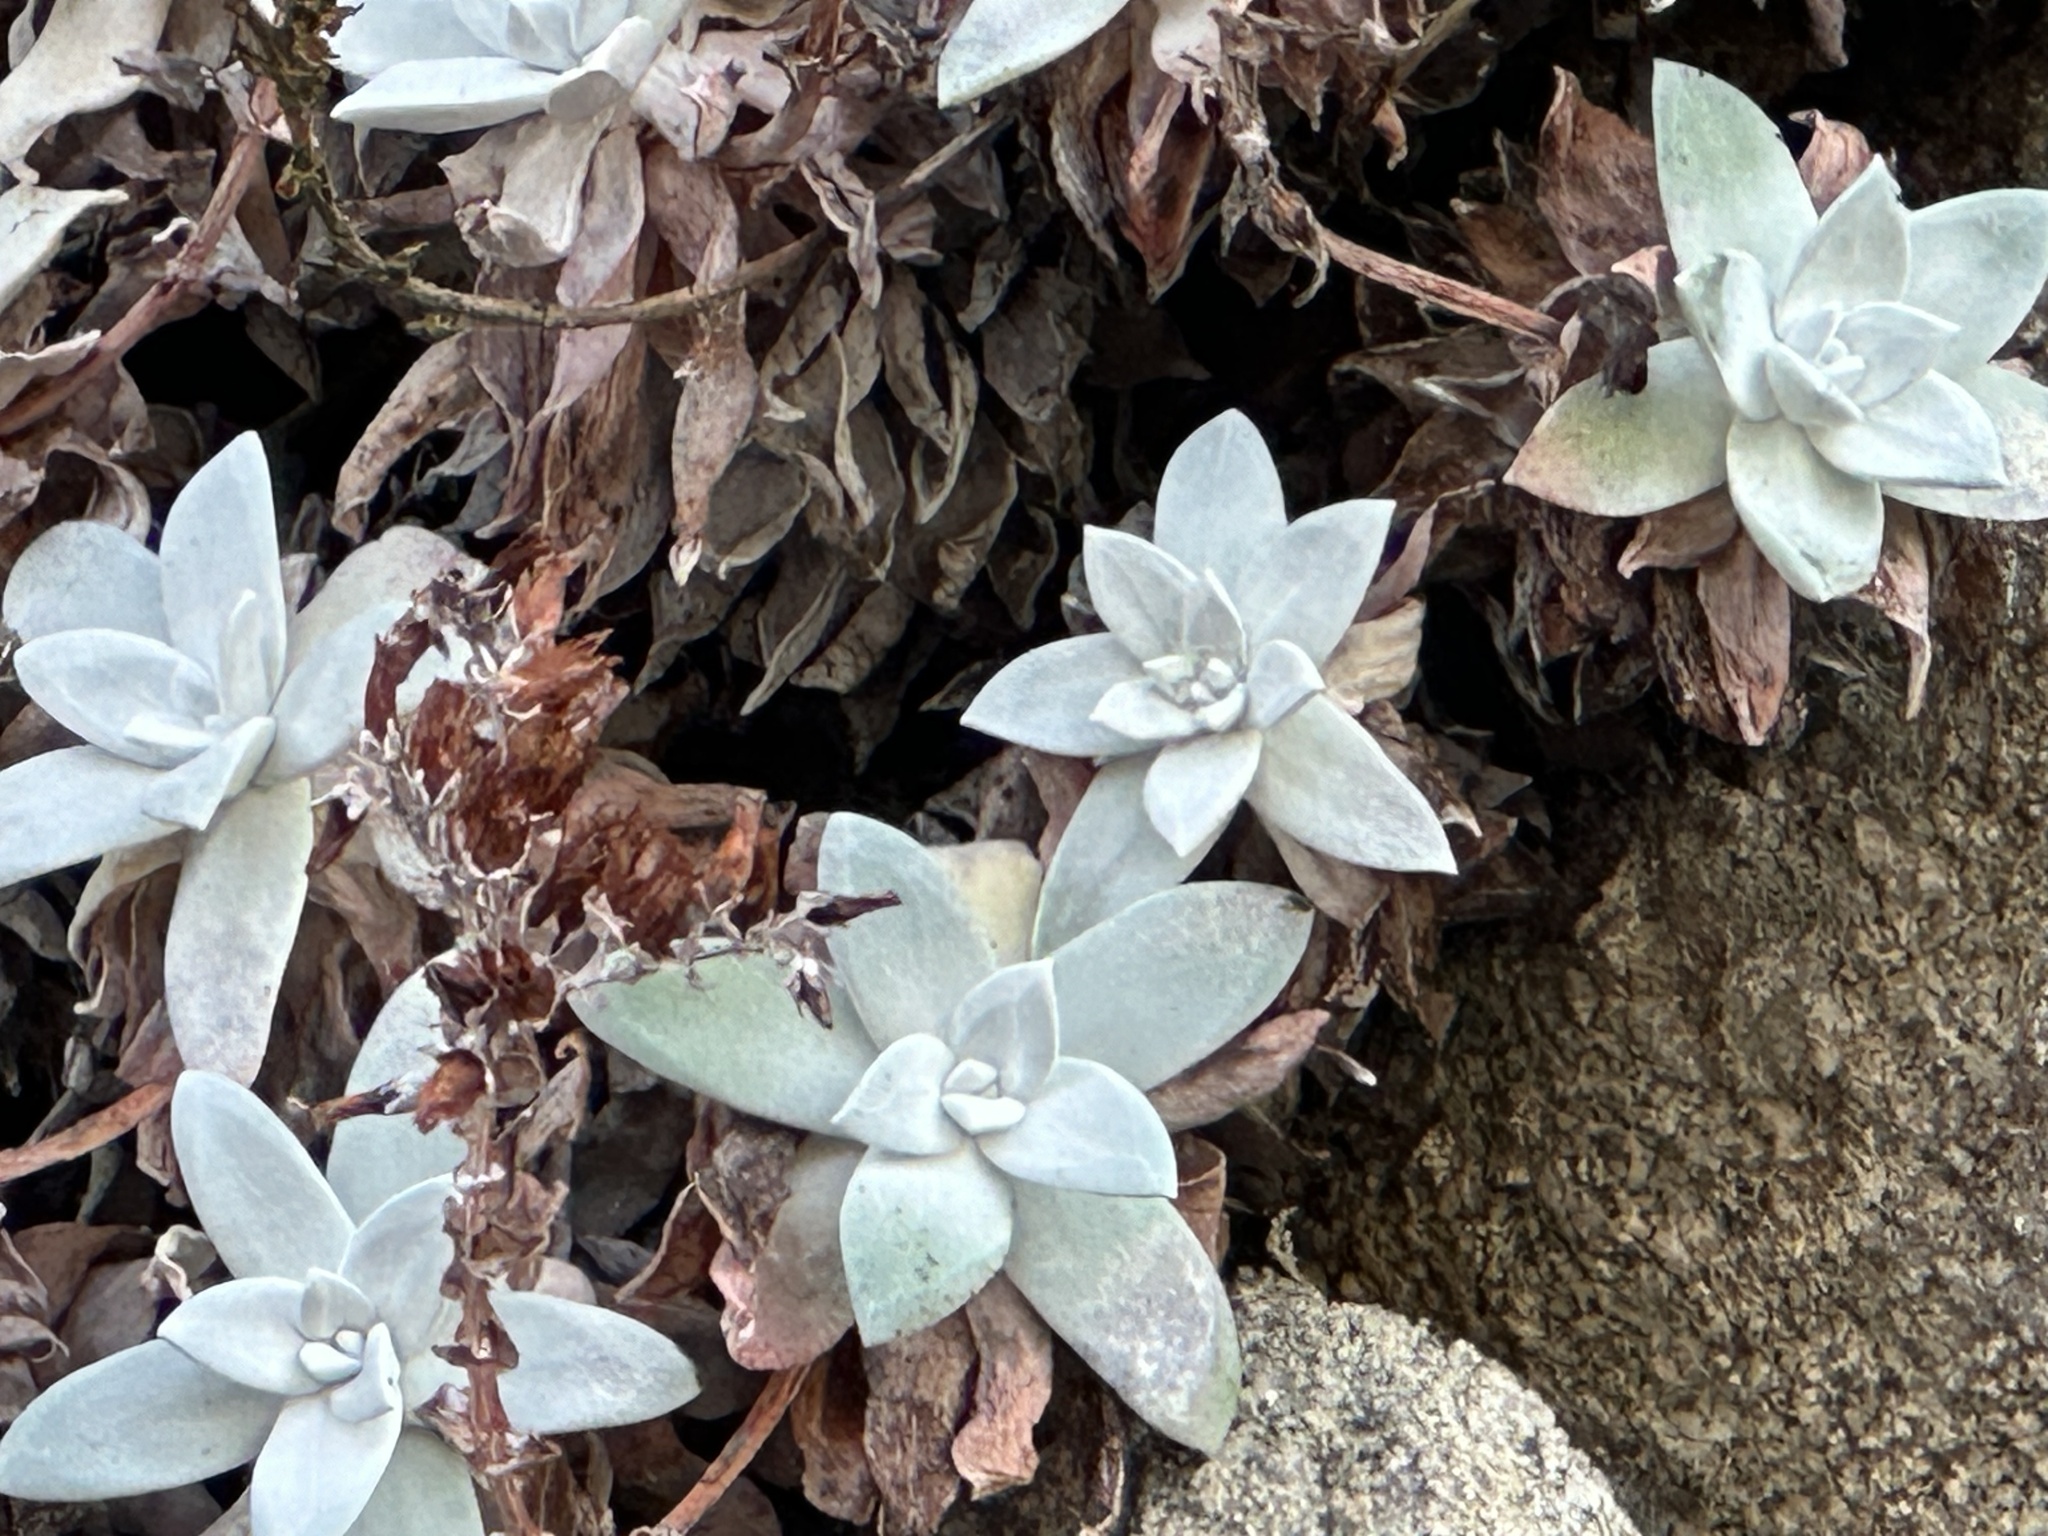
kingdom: Plantae
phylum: Tracheophyta
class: Magnoliopsida
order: Saxifragales
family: Crassulaceae
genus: Dudleya
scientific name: Dudleya farinosa
